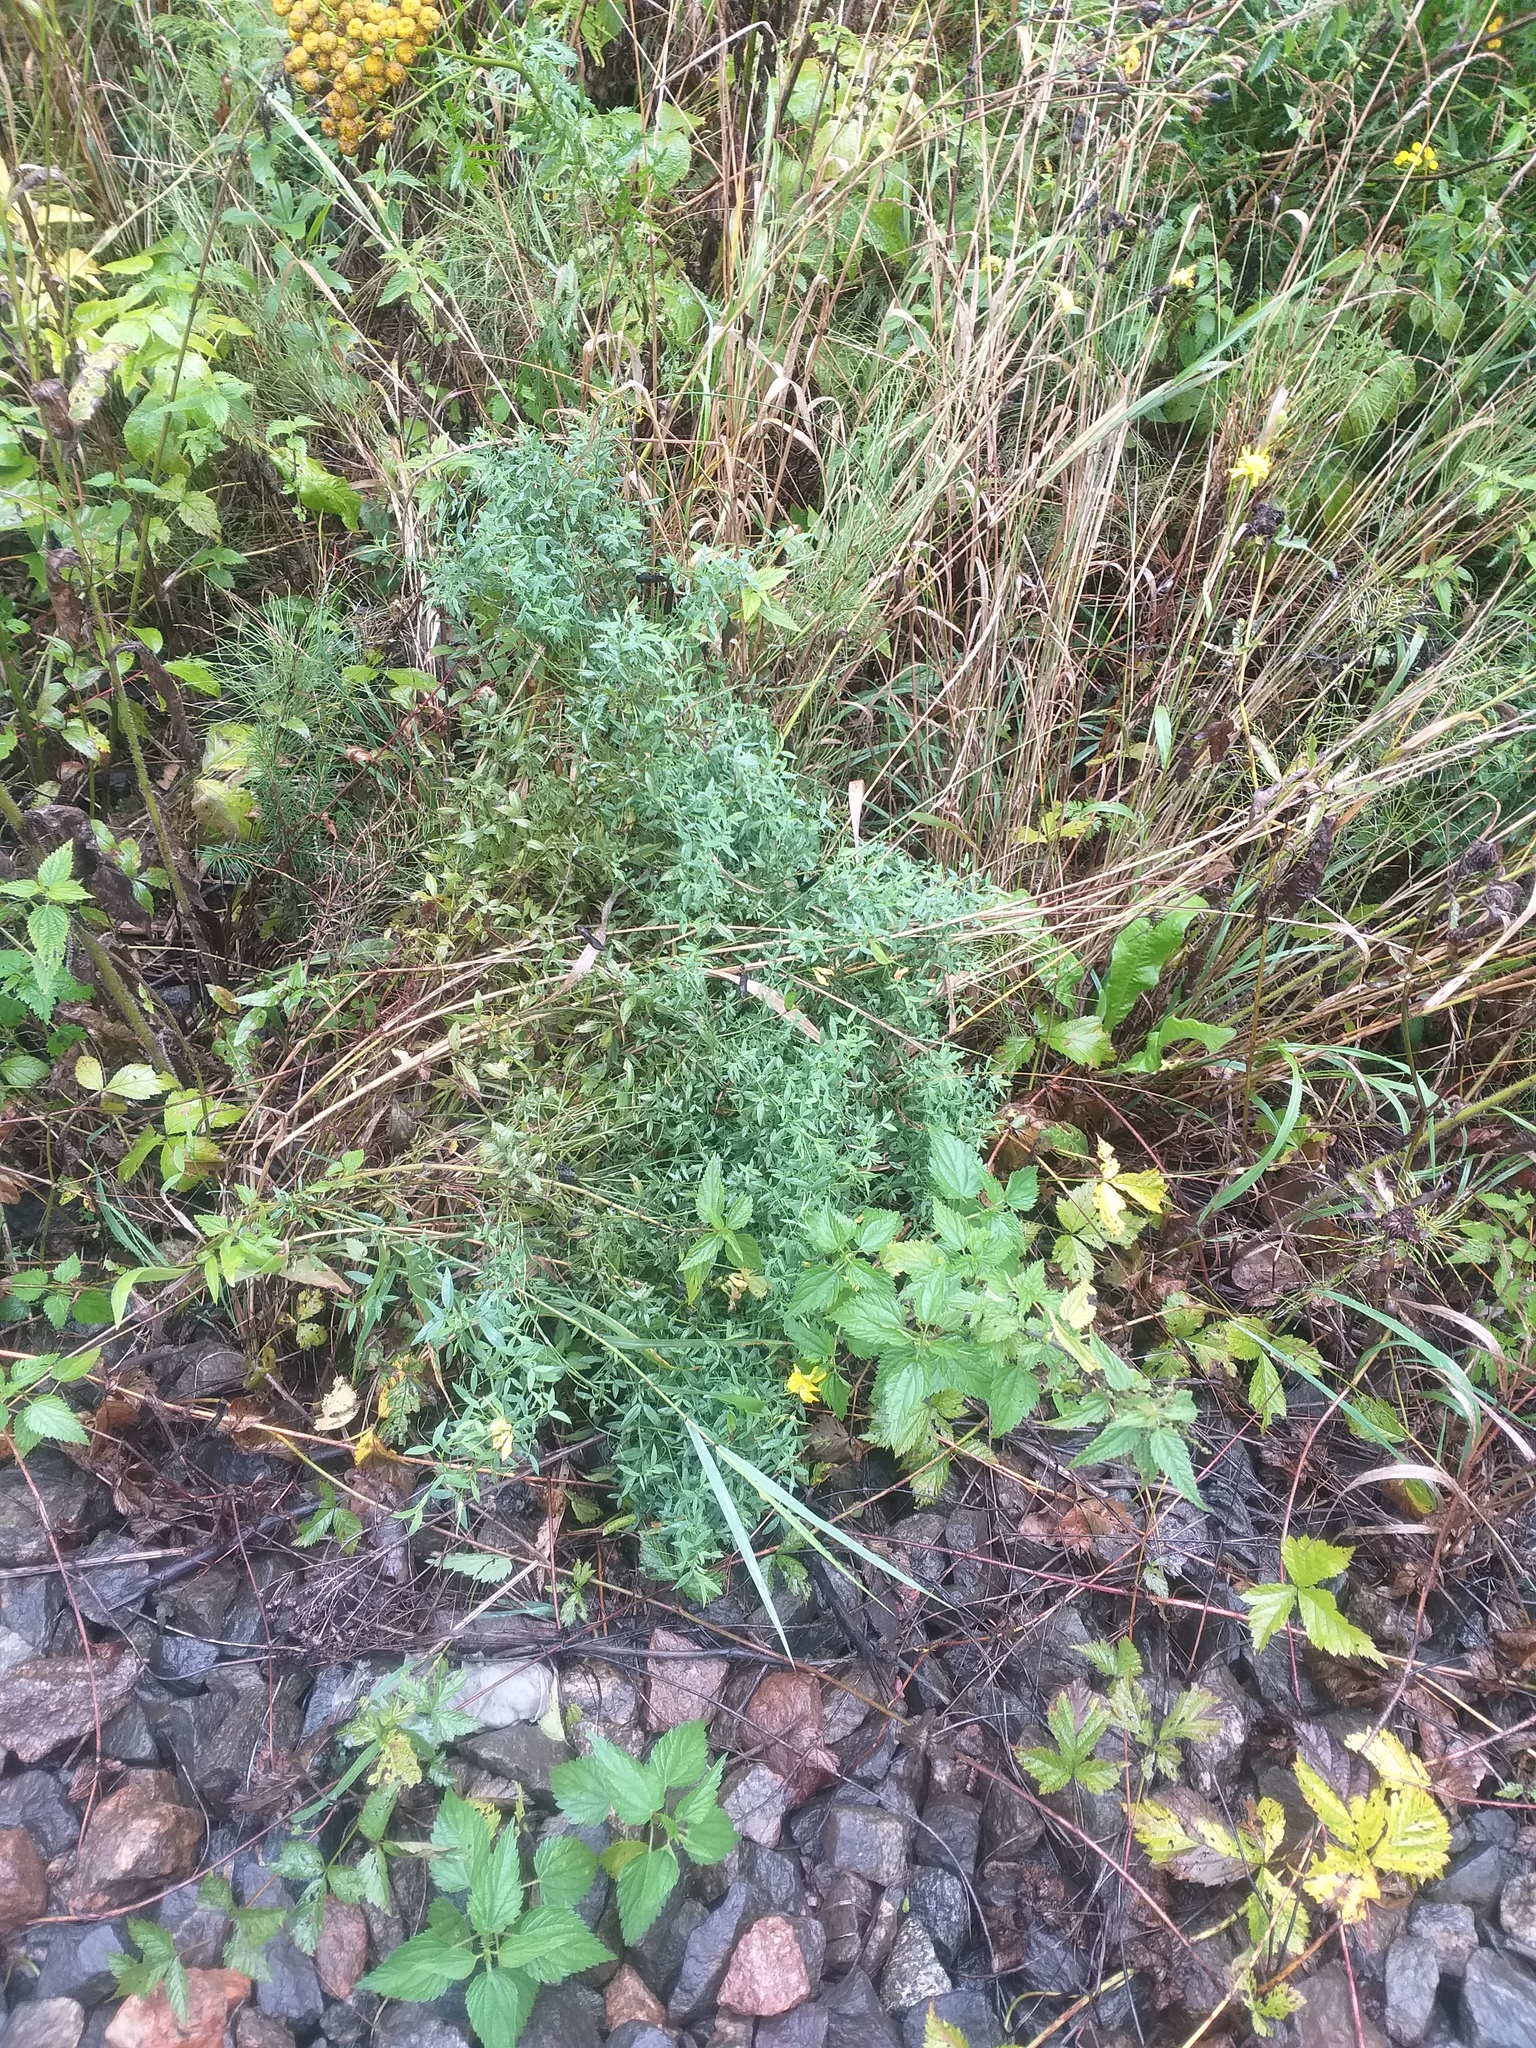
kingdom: Plantae
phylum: Tracheophyta
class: Magnoliopsida
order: Fabales
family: Fabaceae
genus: Lathyrus
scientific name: Lathyrus pratensis
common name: Meadow vetchling
